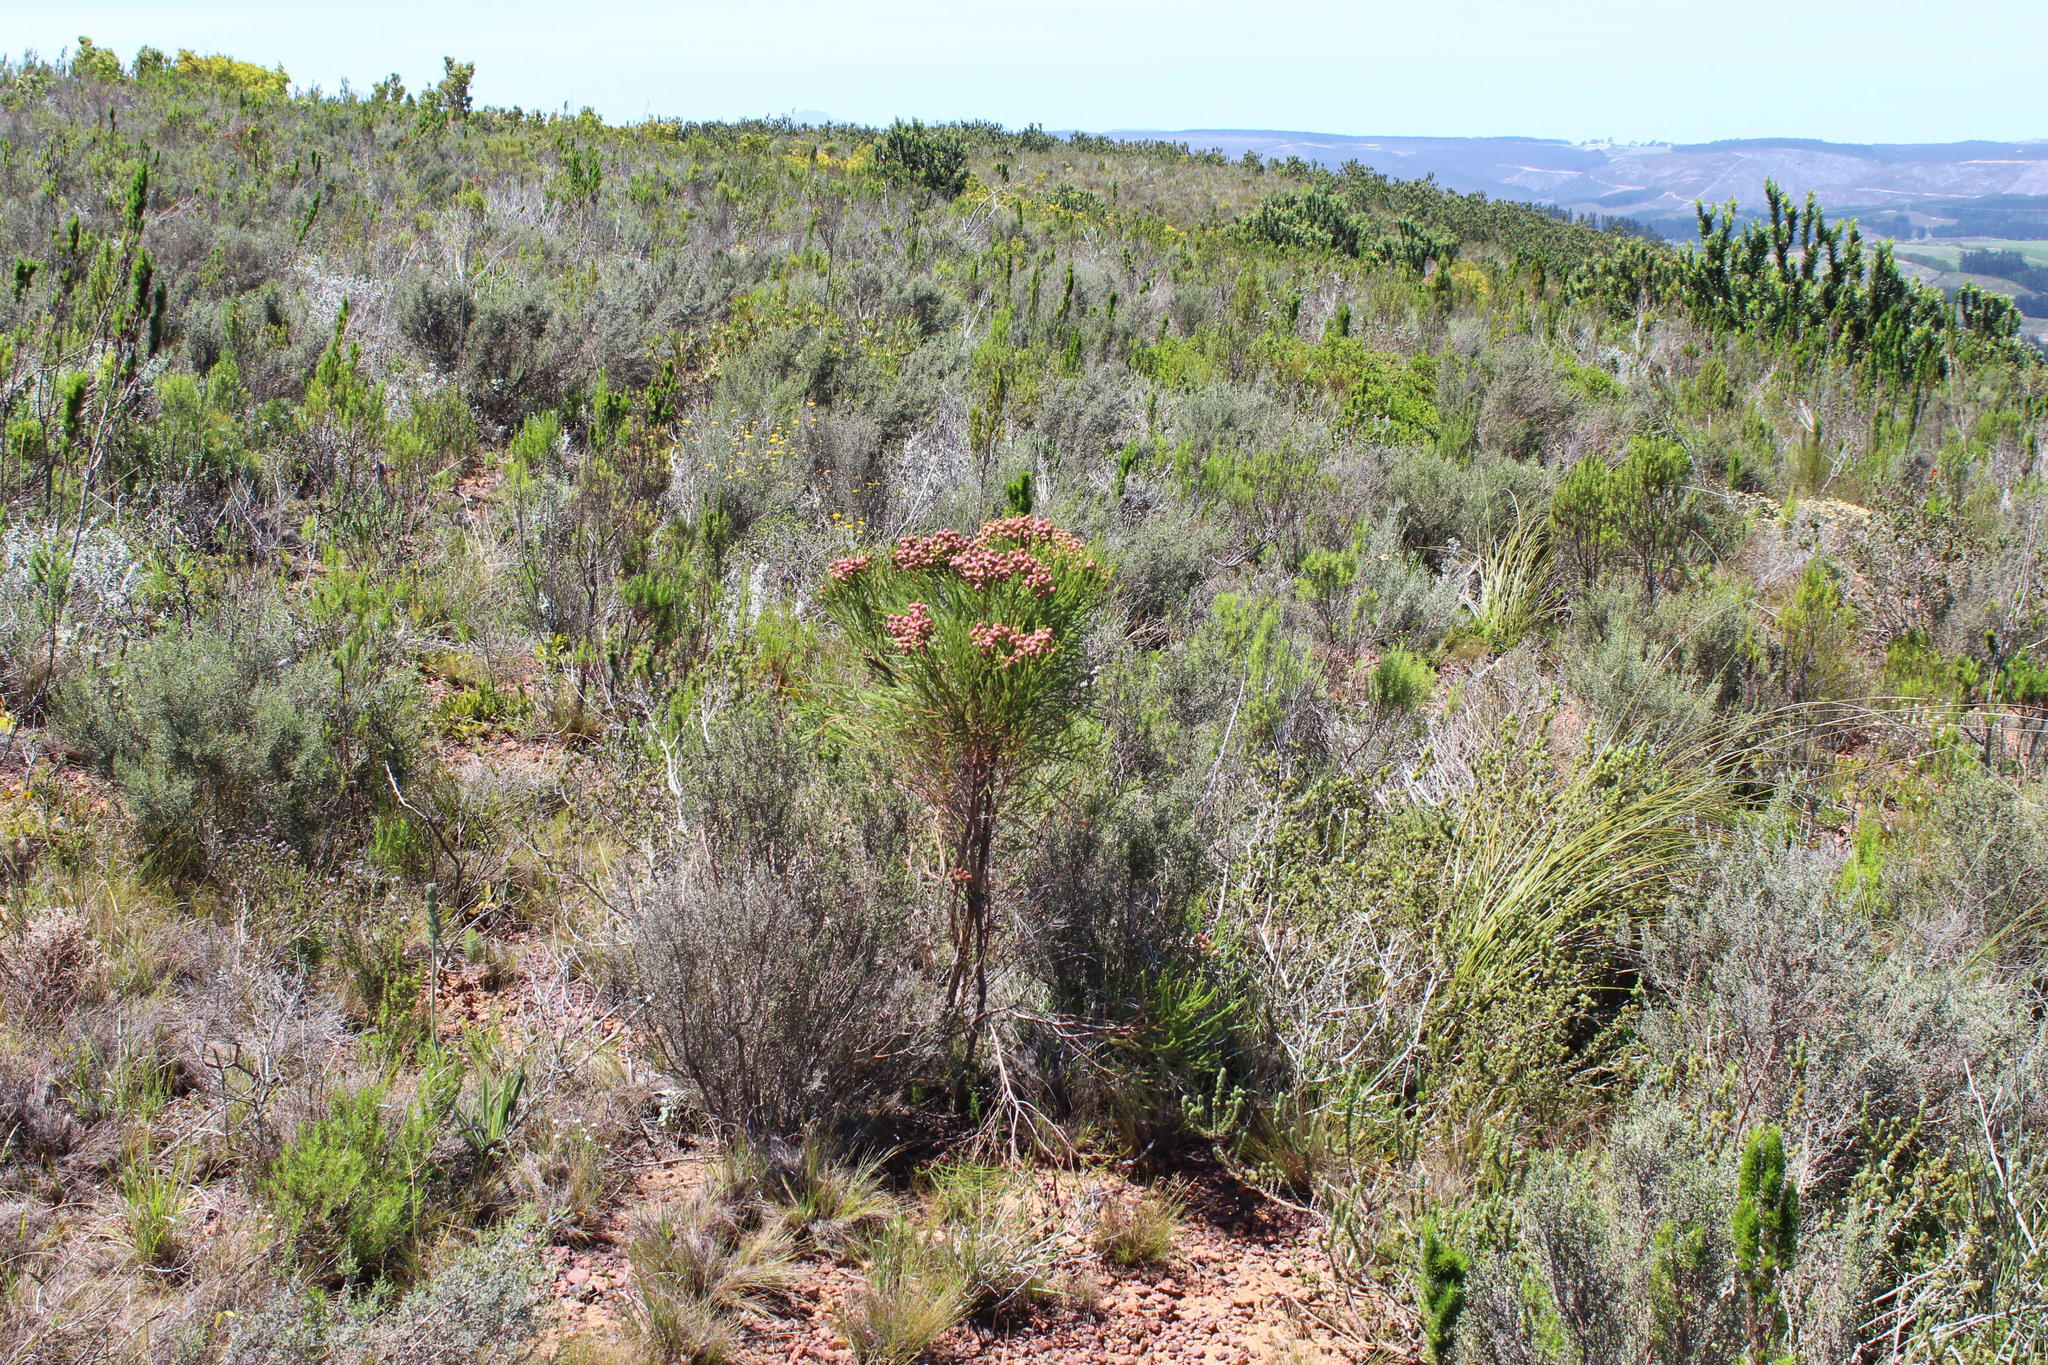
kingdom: Plantae
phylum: Tracheophyta
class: Magnoliopsida
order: Bruniales
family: Bruniaceae
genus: Berzelia
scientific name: Berzelia lanuginosa
